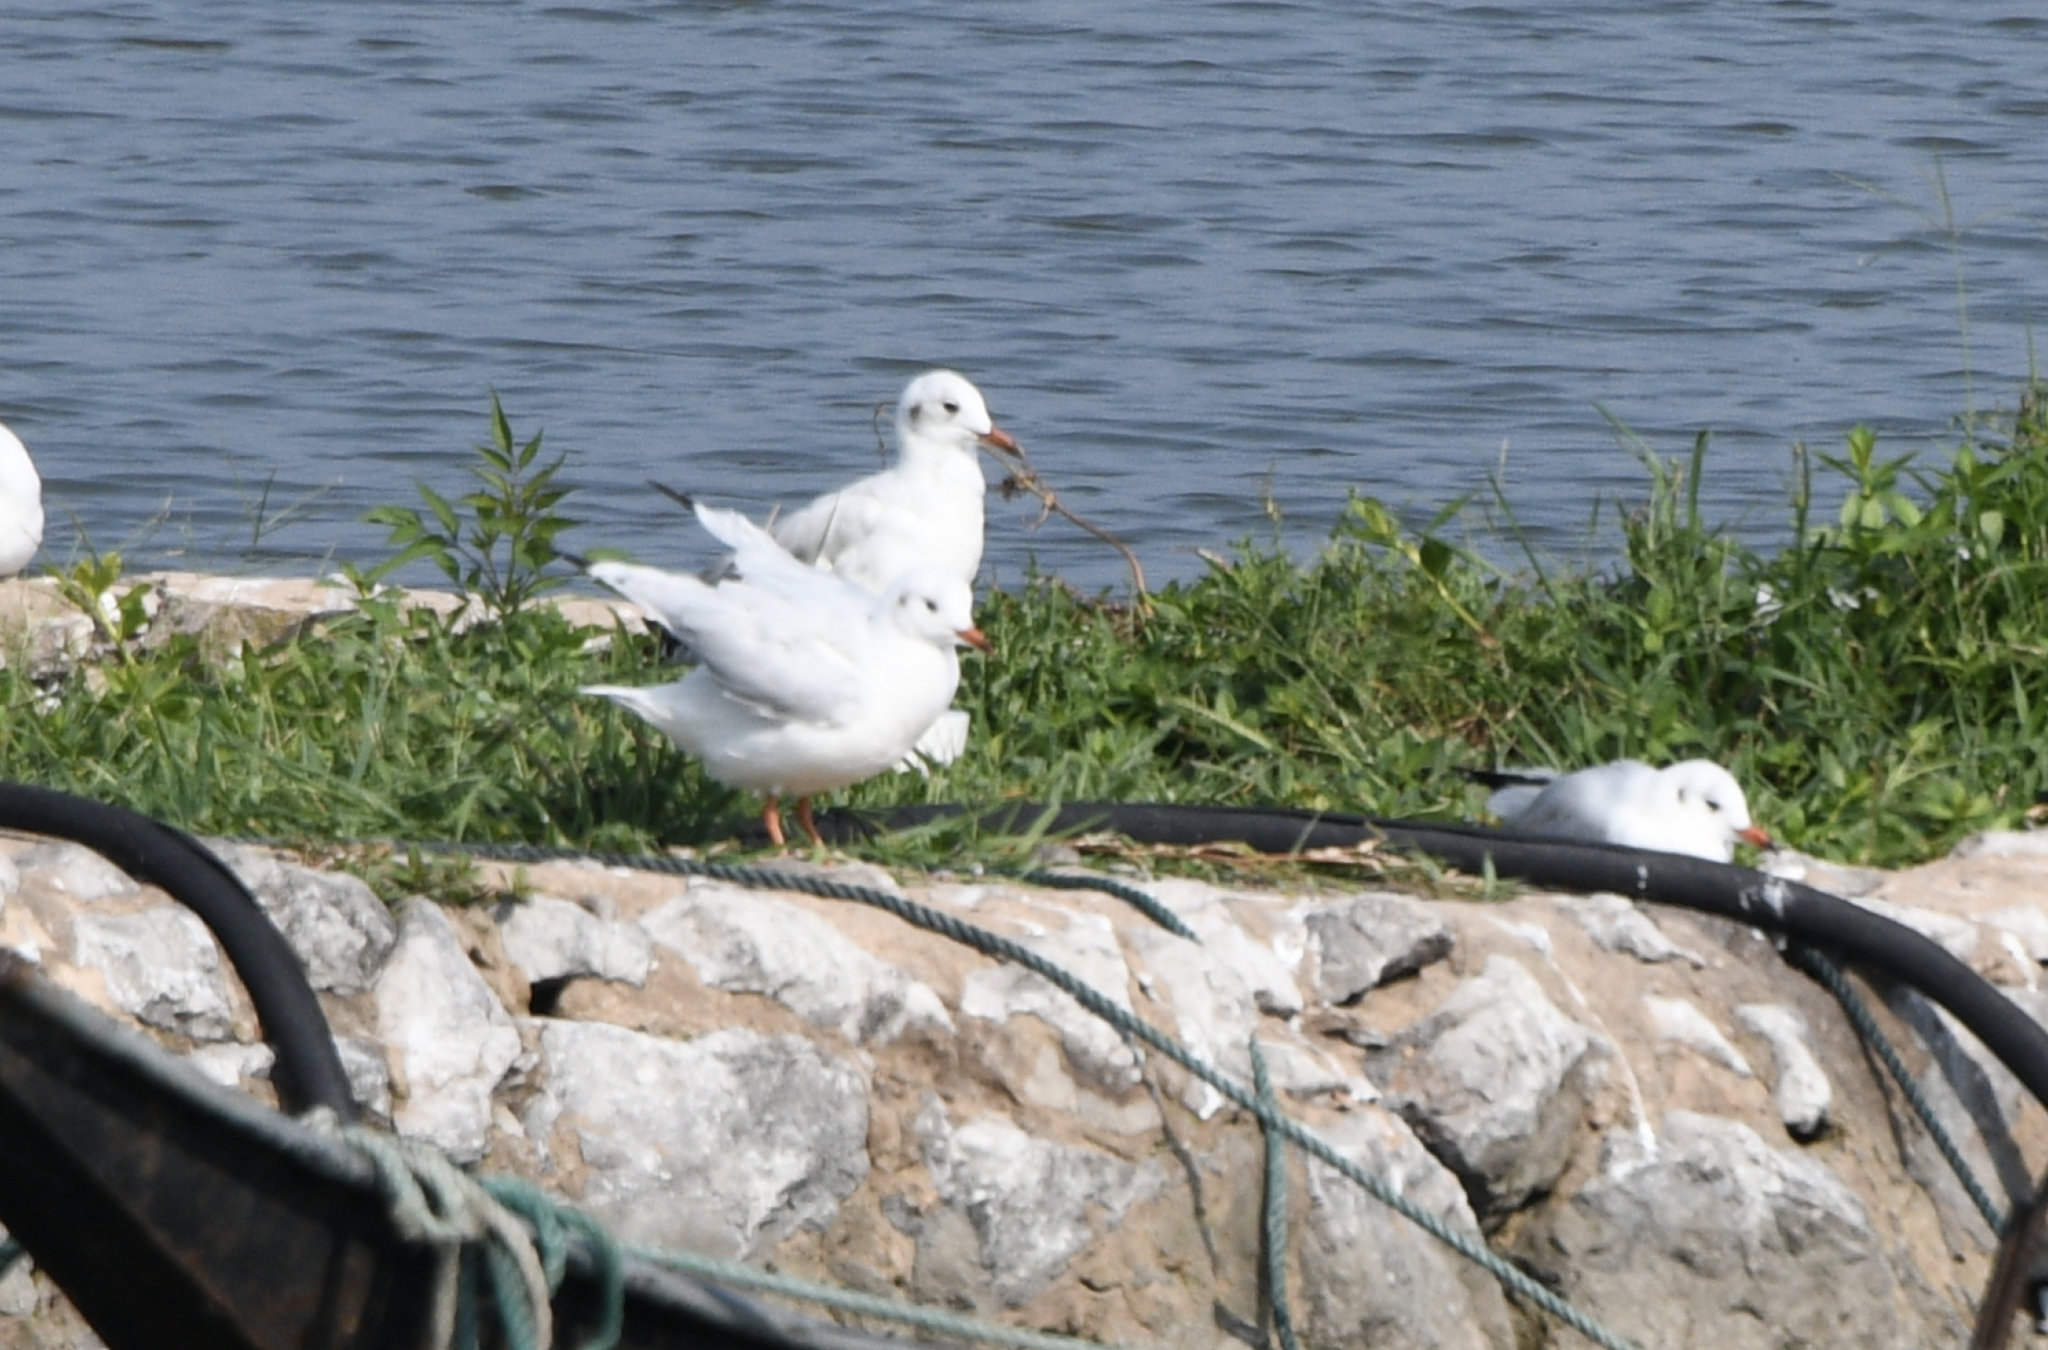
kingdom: Animalia
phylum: Chordata
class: Aves
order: Charadriiformes
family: Laridae
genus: Chroicocephalus
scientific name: Chroicocephalus ridibundus
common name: Black-headed gull
